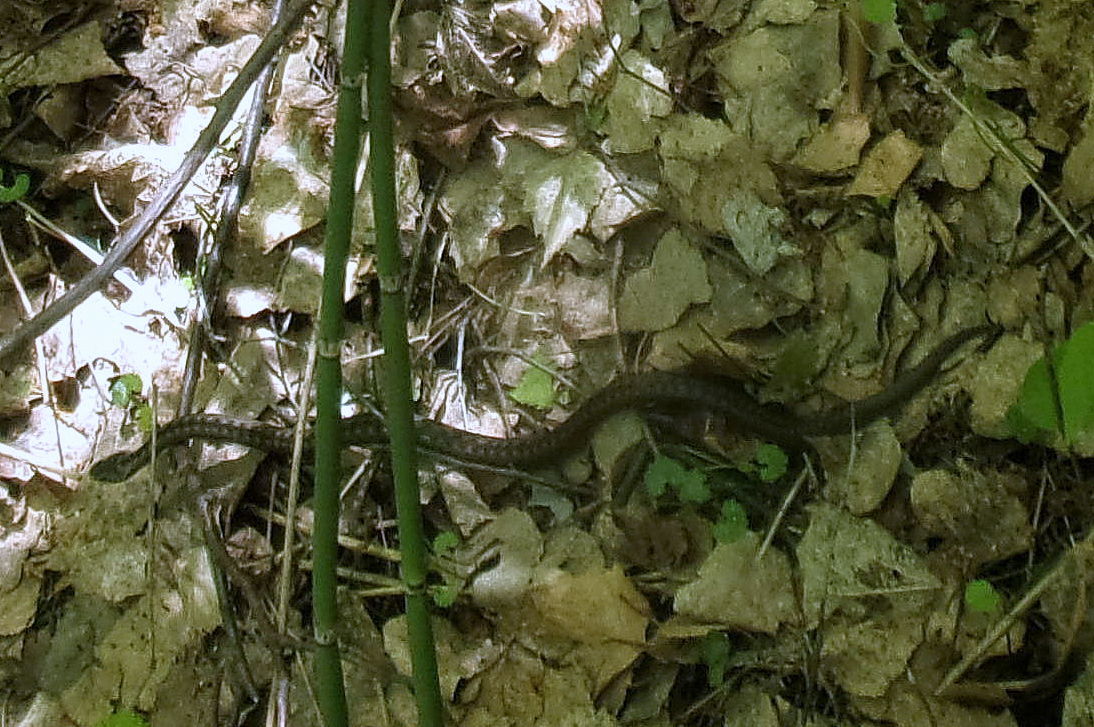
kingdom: Animalia
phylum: Chordata
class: Squamata
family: Viperidae
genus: Vipera
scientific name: Vipera berus
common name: Adder
